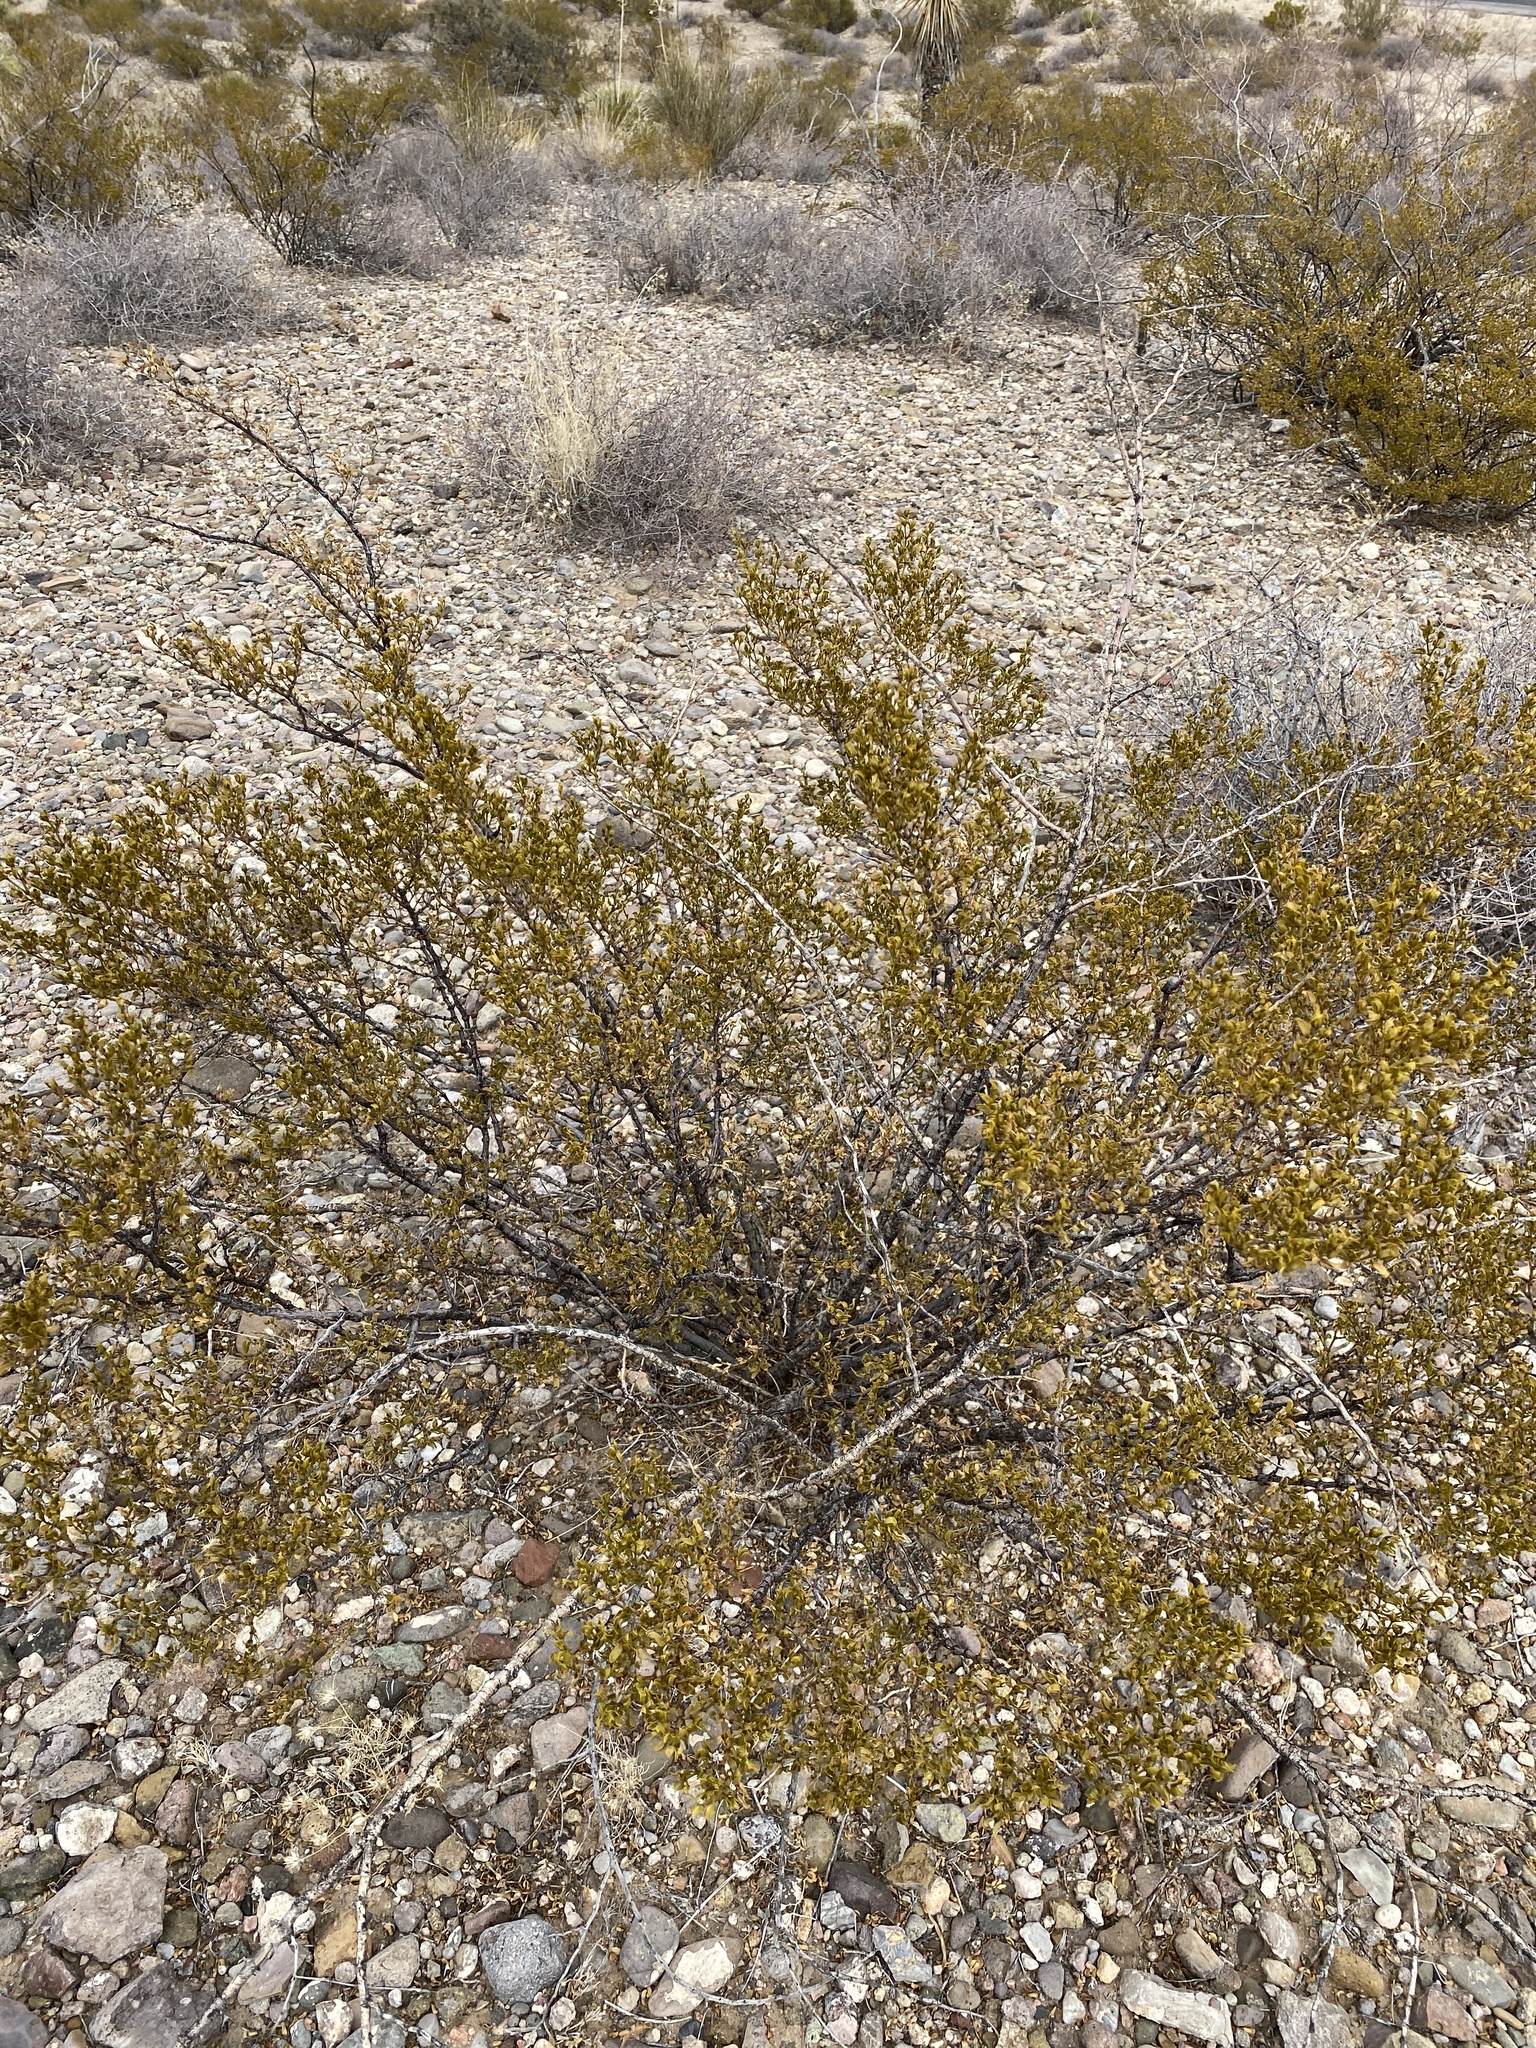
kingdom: Plantae
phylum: Tracheophyta
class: Magnoliopsida
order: Zygophyllales
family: Zygophyllaceae
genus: Larrea
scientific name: Larrea tridentata
